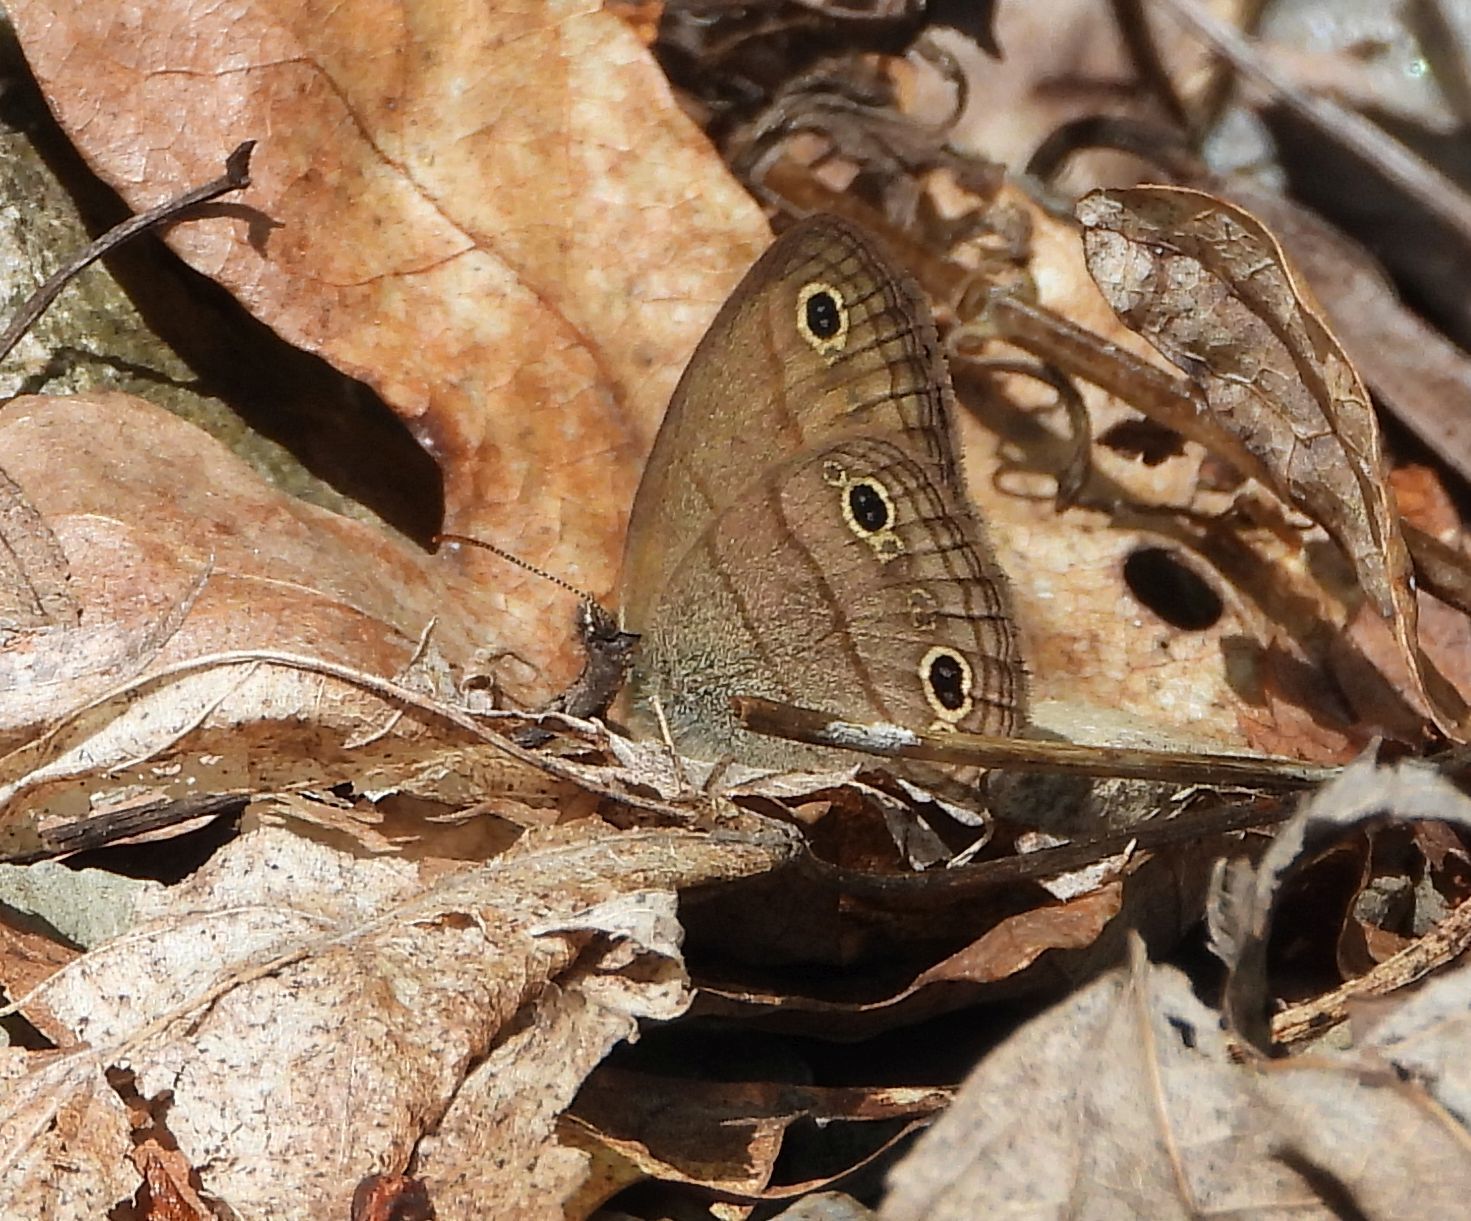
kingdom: Animalia
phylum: Arthropoda
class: Insecta
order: Lepidoptera
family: Nymphalidae
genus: Euptychia
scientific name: Euptychia cymela
